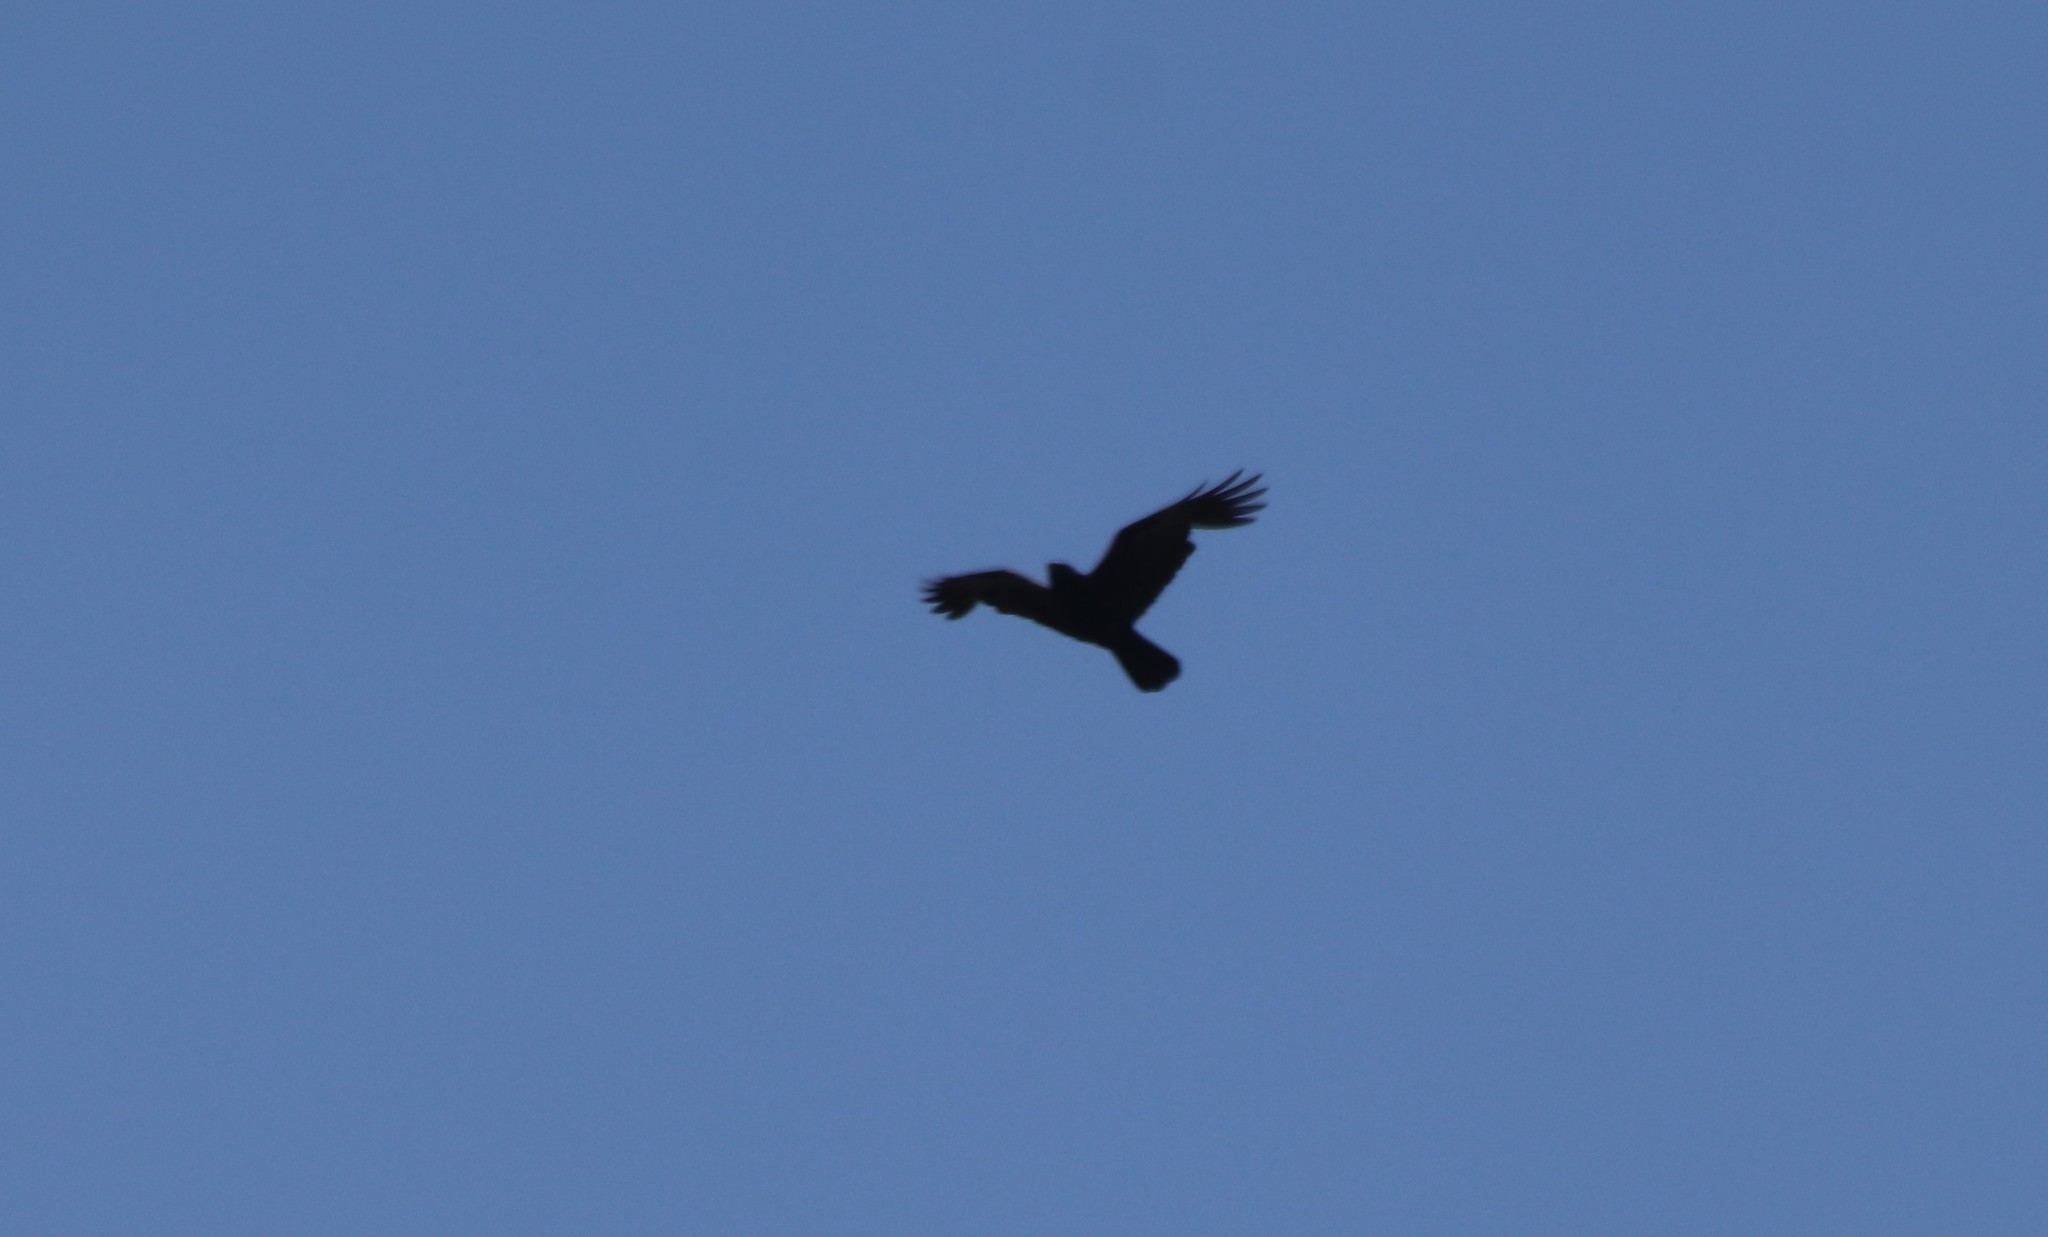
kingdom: Animalia
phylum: Chordata
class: Aves
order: Passeriformes
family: Corvidae
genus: Corvus
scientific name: Corvus brachyrhynchos
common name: American crow
